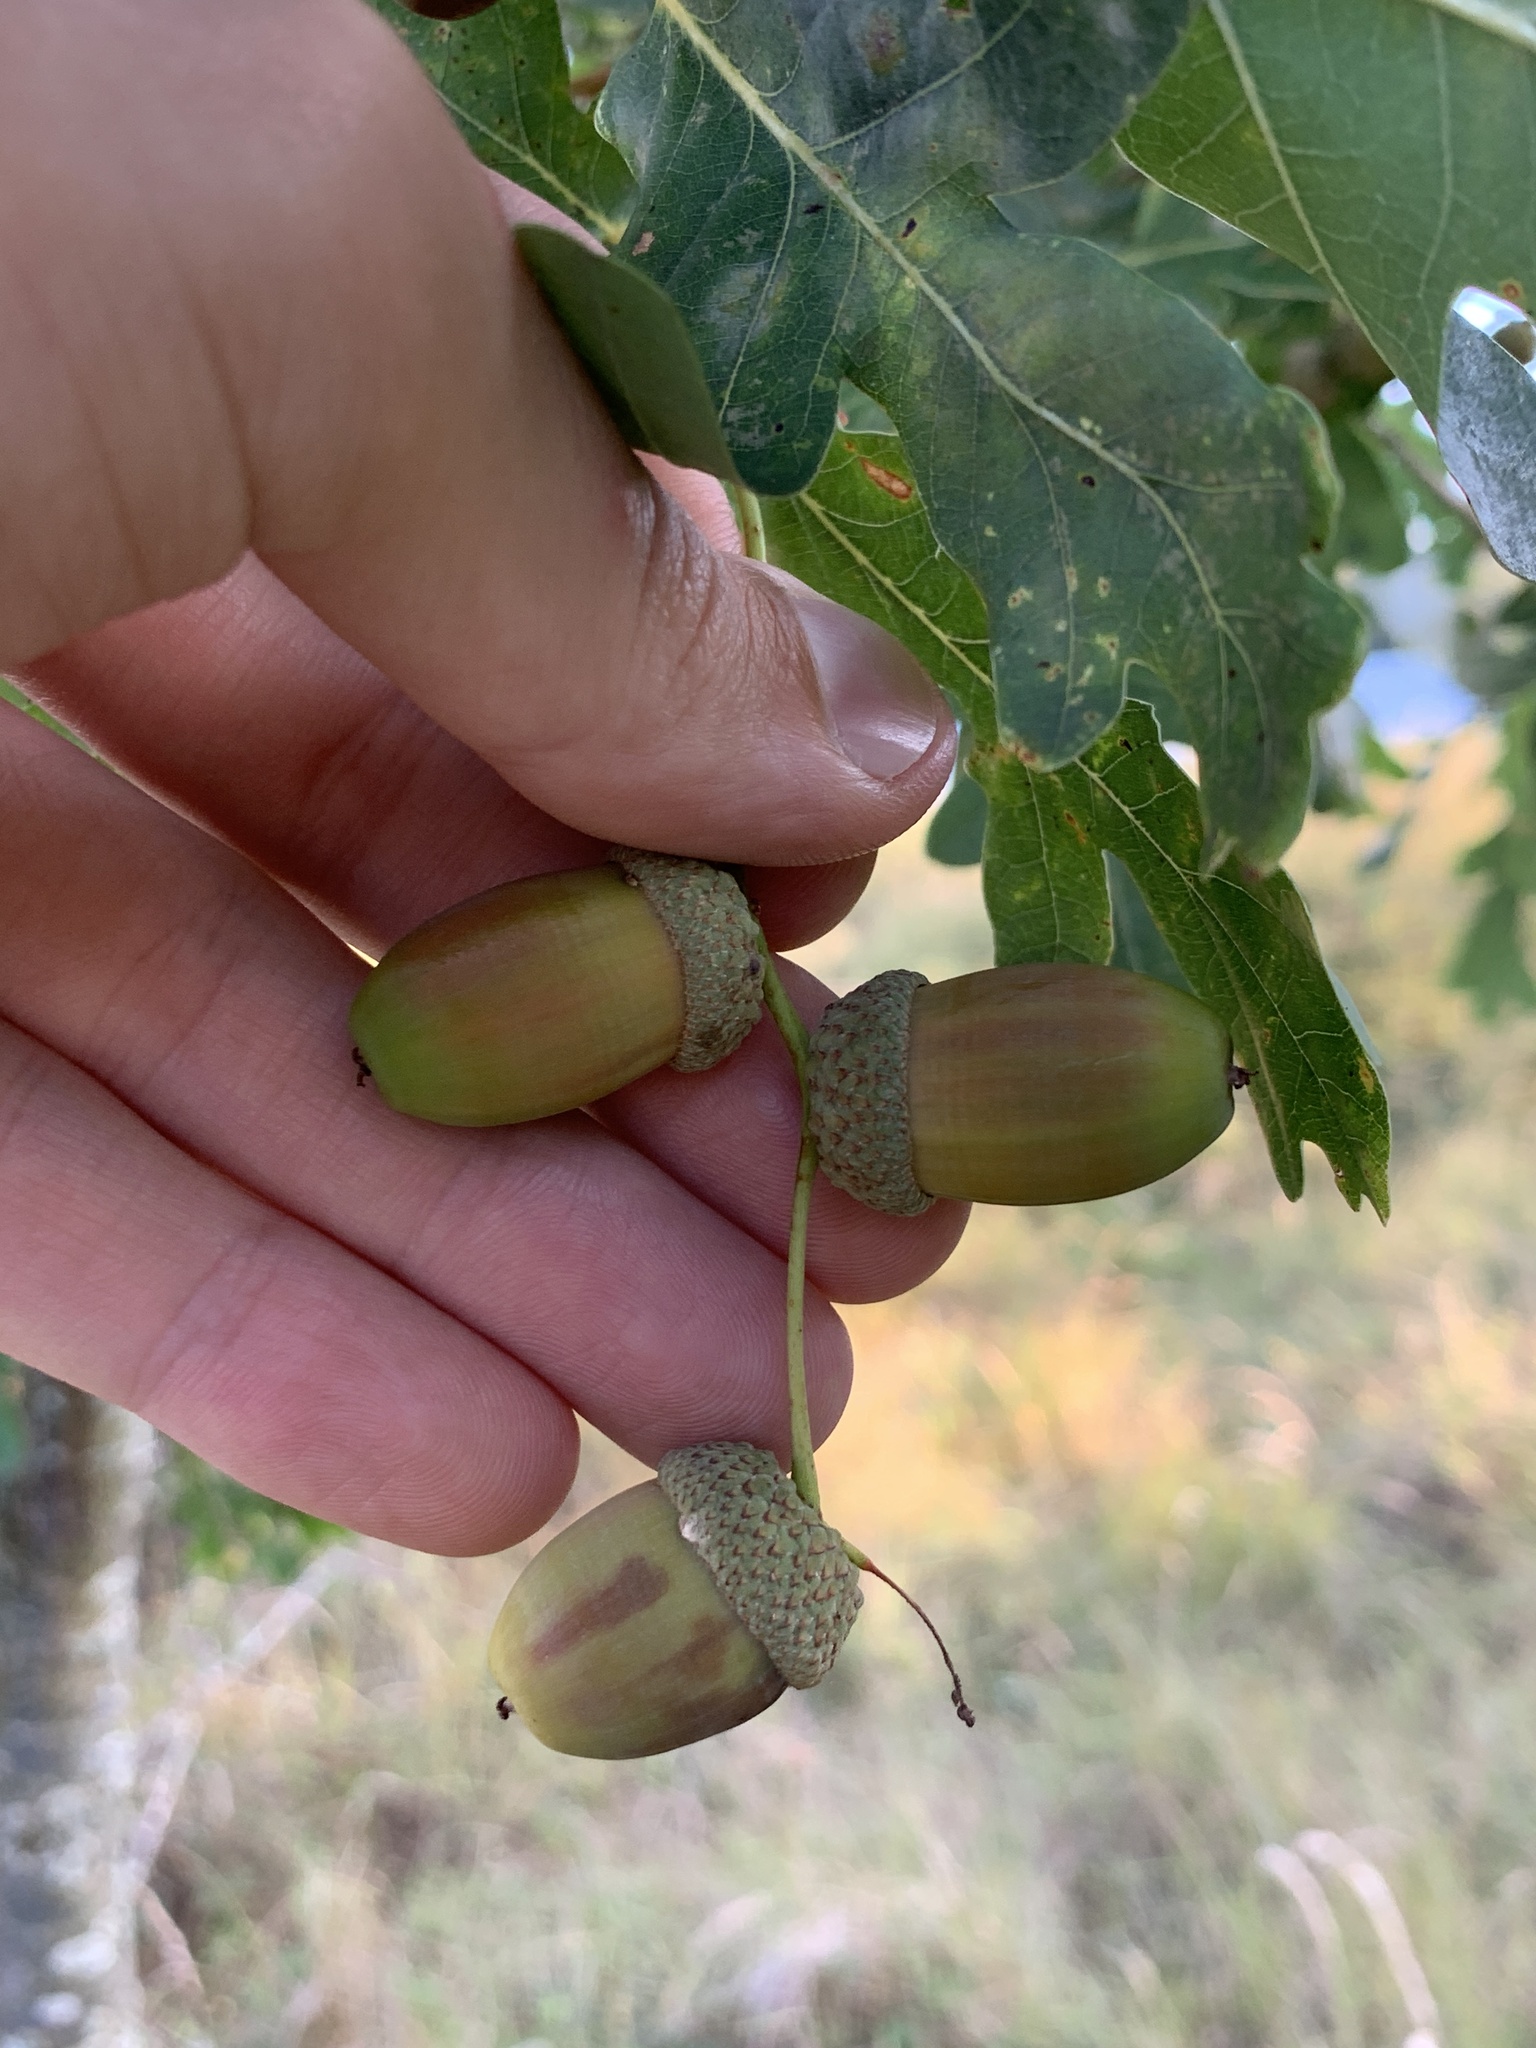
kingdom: Plantae
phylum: Tracheophyta
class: Magnoliopsida
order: Fagales
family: Fagaceae
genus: Quercus
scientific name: Quercus robur
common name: Pedunculate oak
